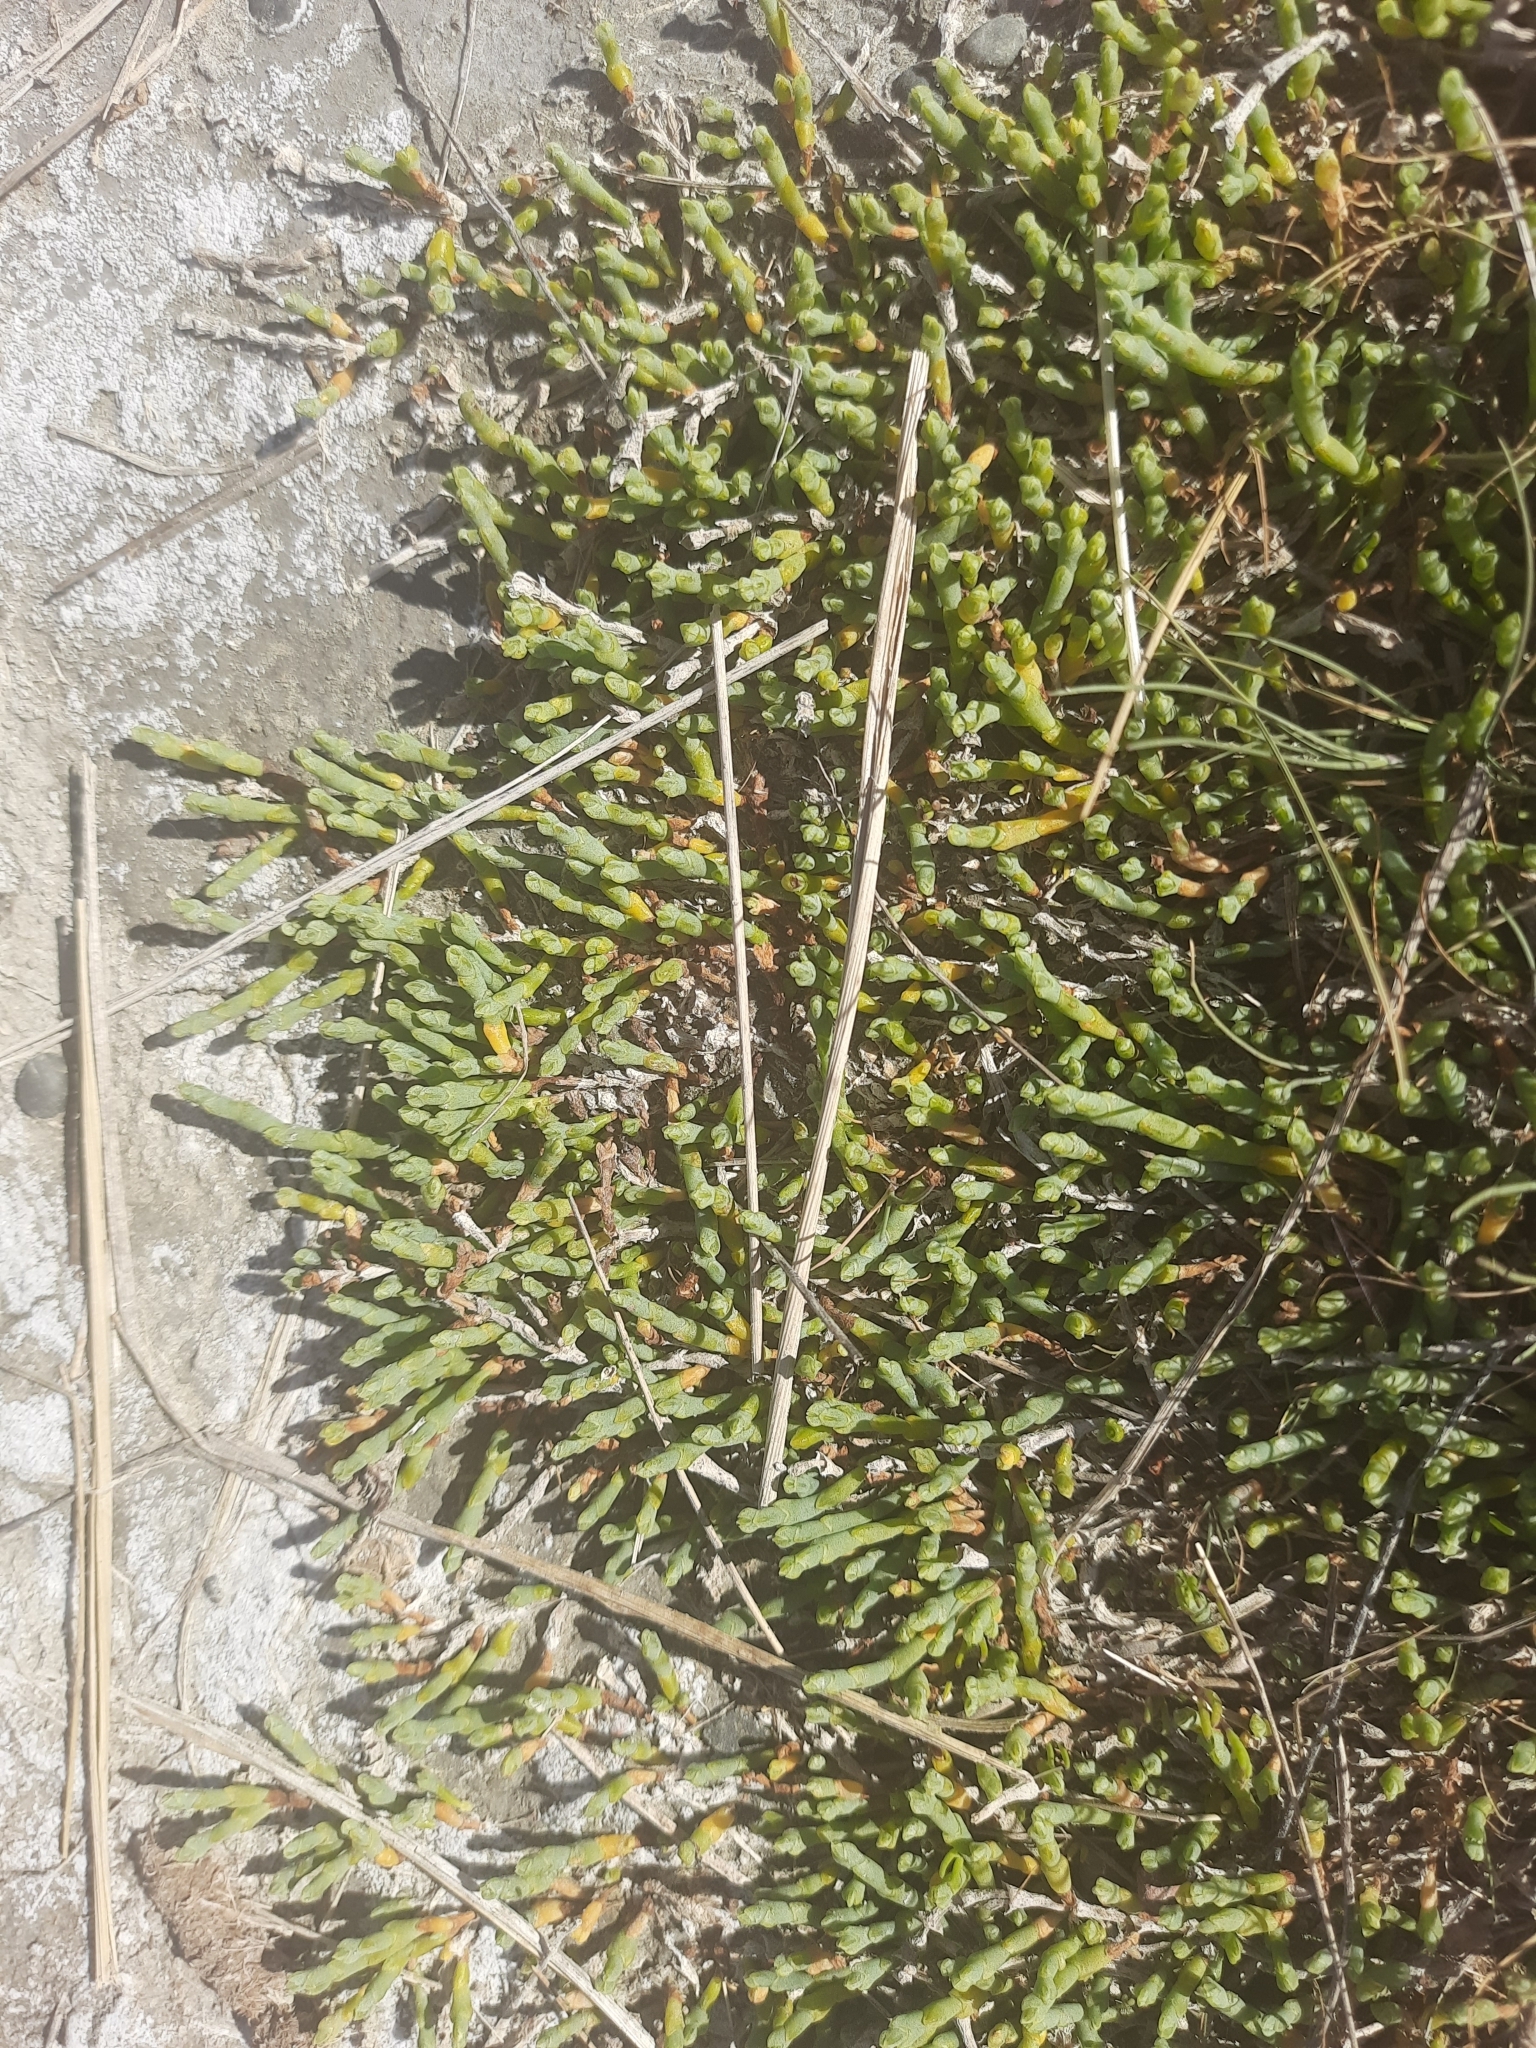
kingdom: Plantae
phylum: Tracheophyta
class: Magnoliopsida
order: Caryophyllales
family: Amaranthaceae
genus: Salicornia
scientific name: Salicornia quinqueflora
